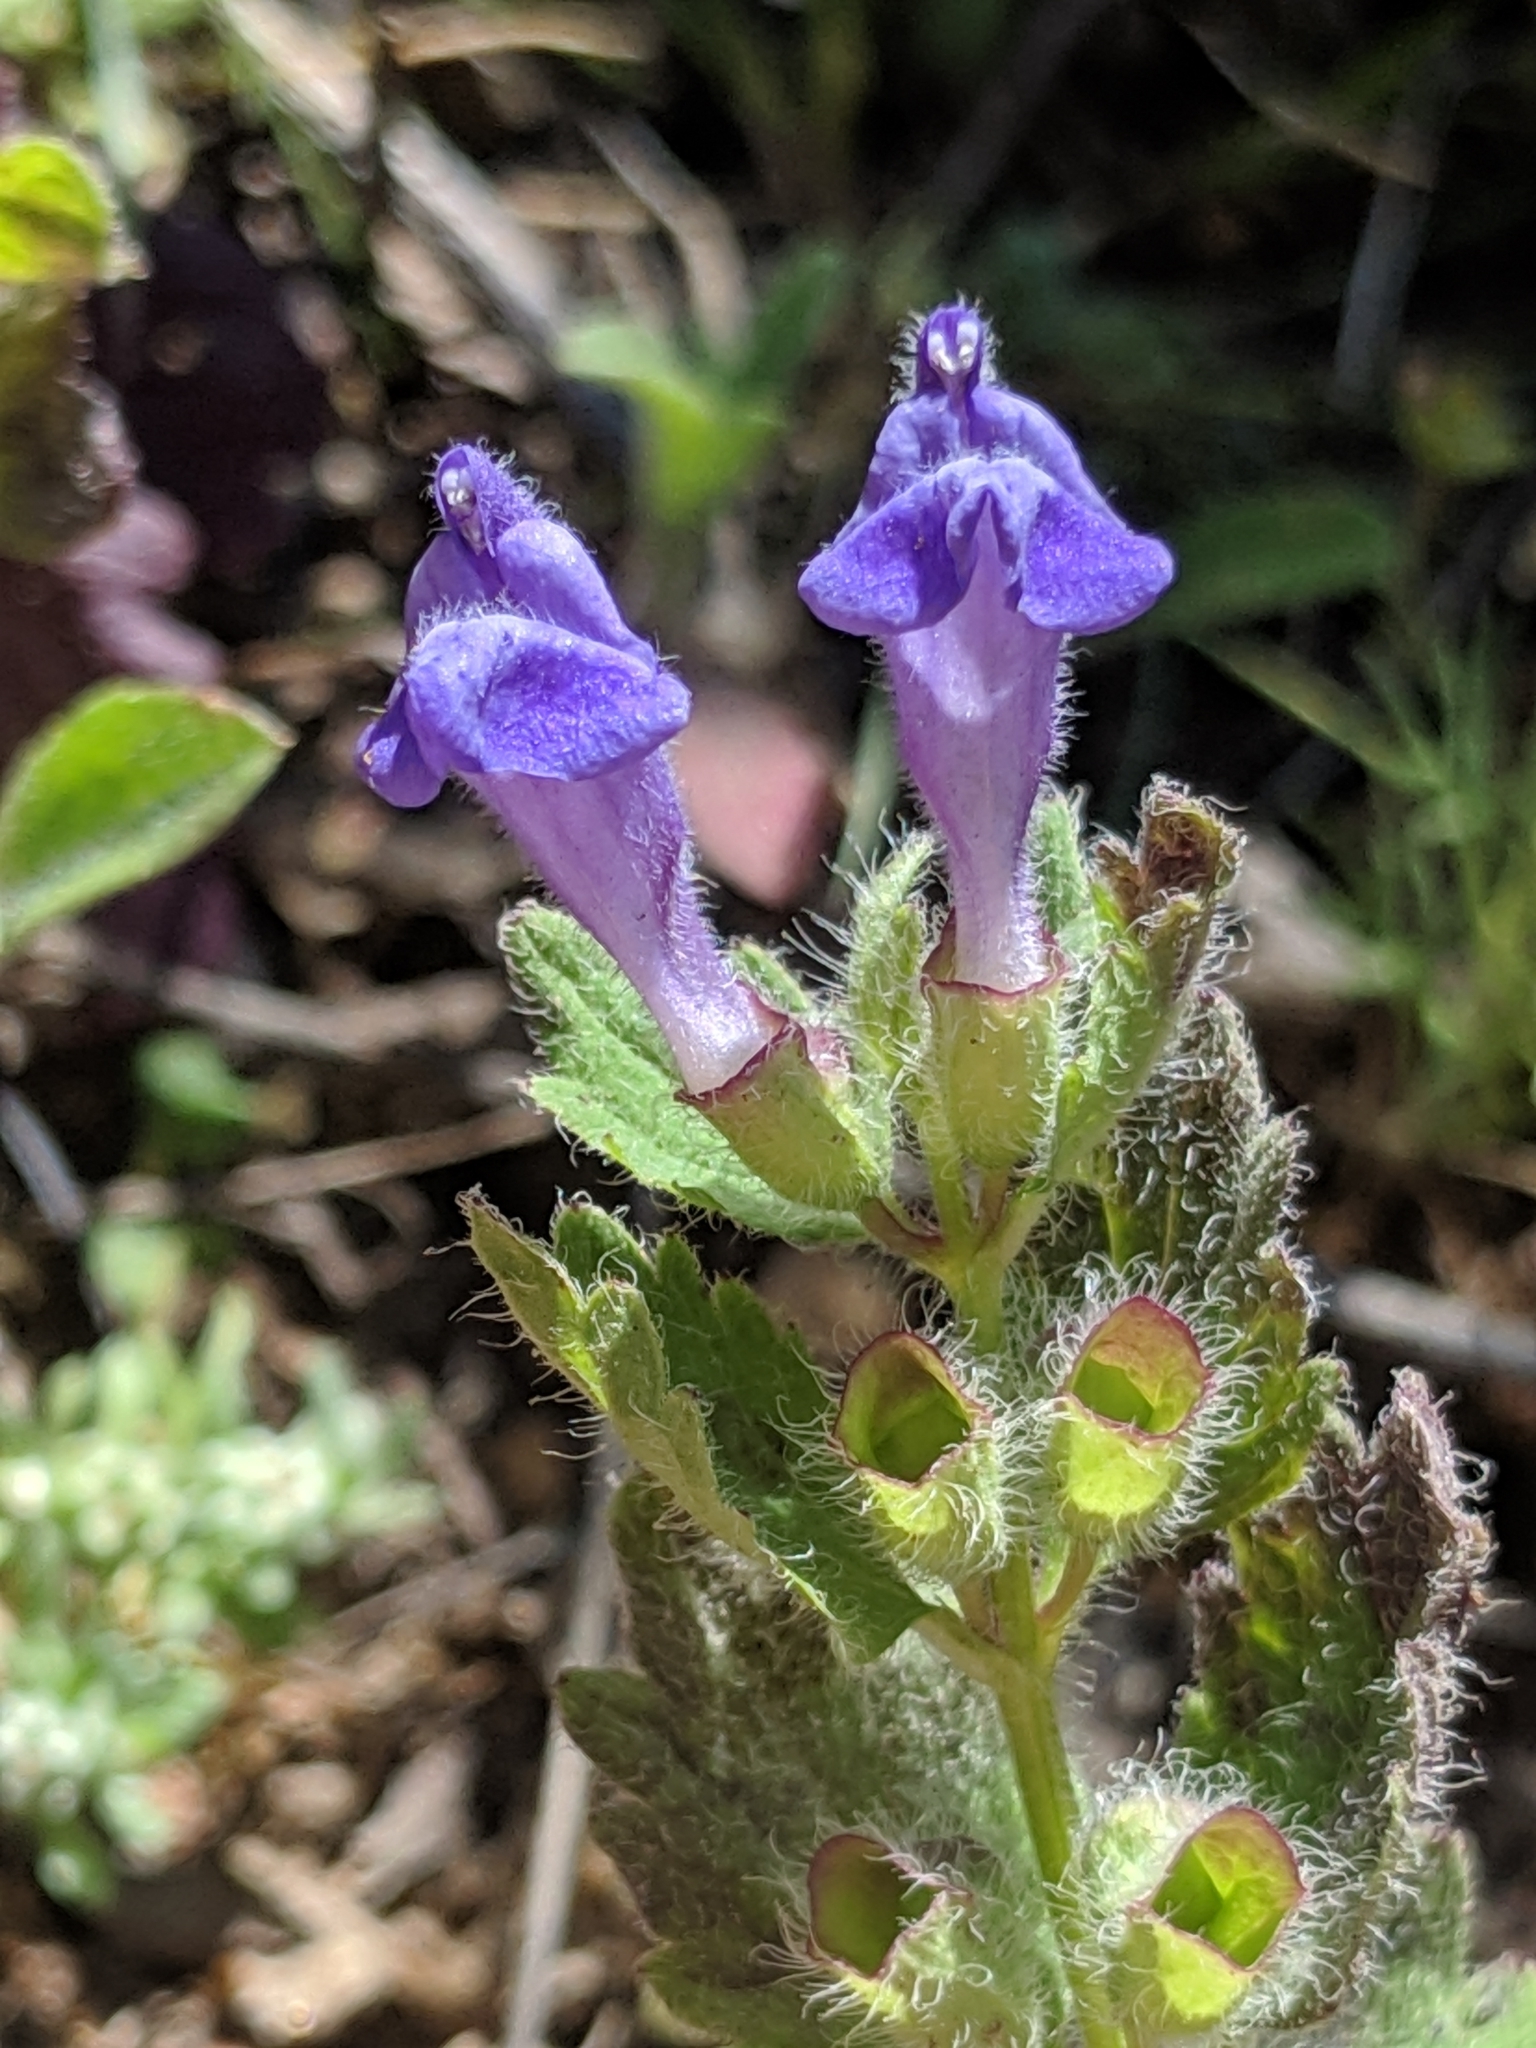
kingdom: Plantae
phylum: Tracheophyta
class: Magnoliopsida
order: Lamiales
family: Lamiaceae
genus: Scutellaria
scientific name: Scutellaria tuberosa
